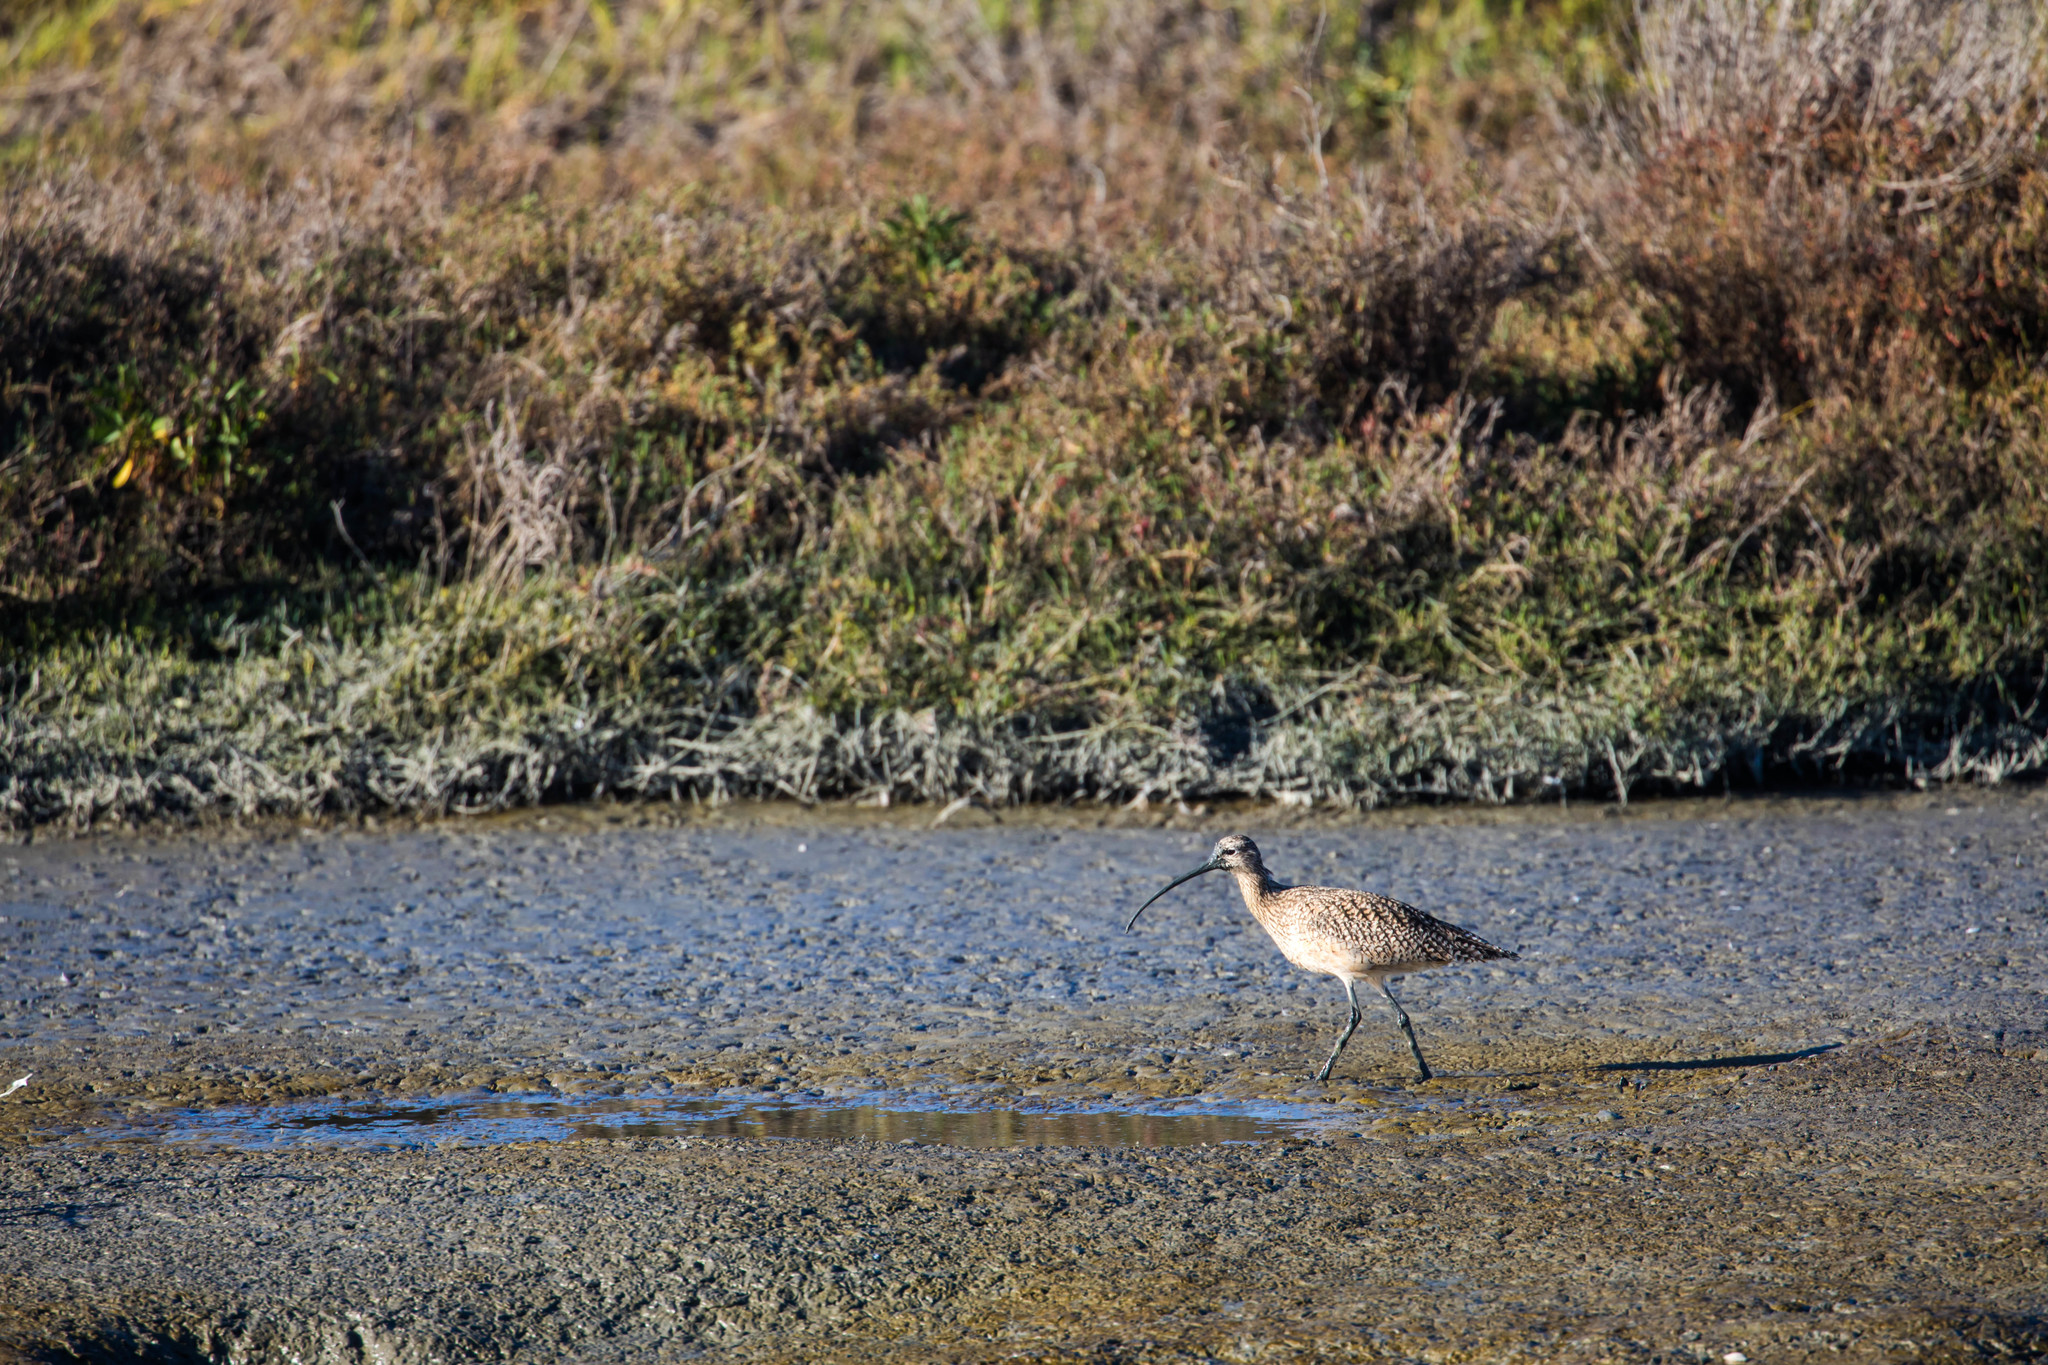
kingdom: Animalia
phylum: Chordata
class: Aves
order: Charadriiformes
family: Scolopacidae
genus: Numenius
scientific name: Numenius americanus
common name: Long-billed curlew
